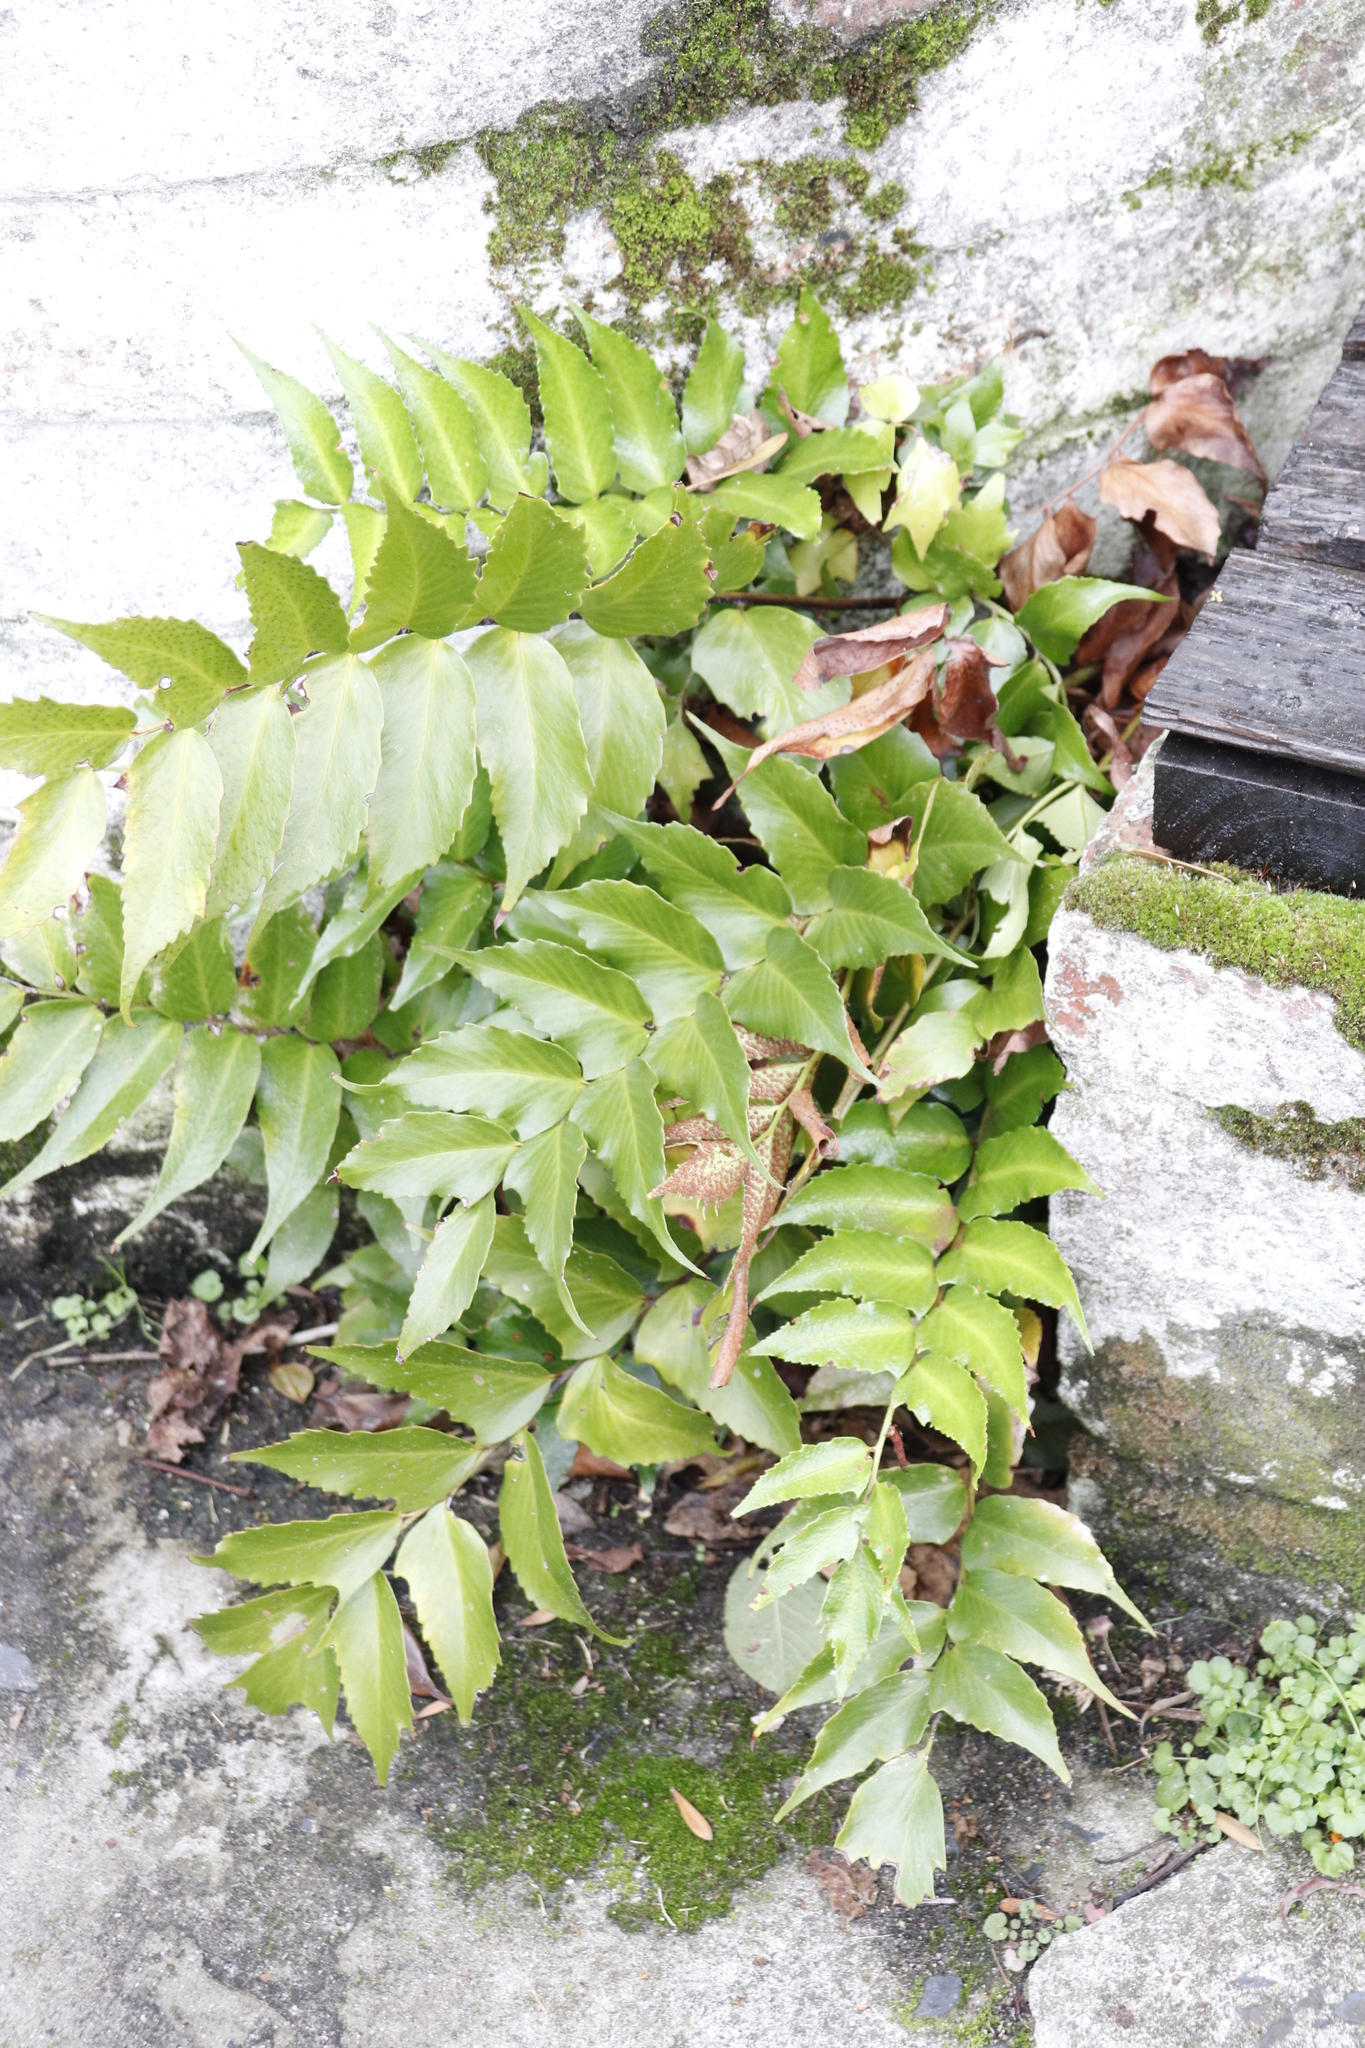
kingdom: Plantae
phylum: Tracheophyta
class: Polypodiopsida
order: Polypodiales
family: Dryopteridaceae
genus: Cyrtomium
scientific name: Cyrtomium falcatum
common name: House holly-fern
